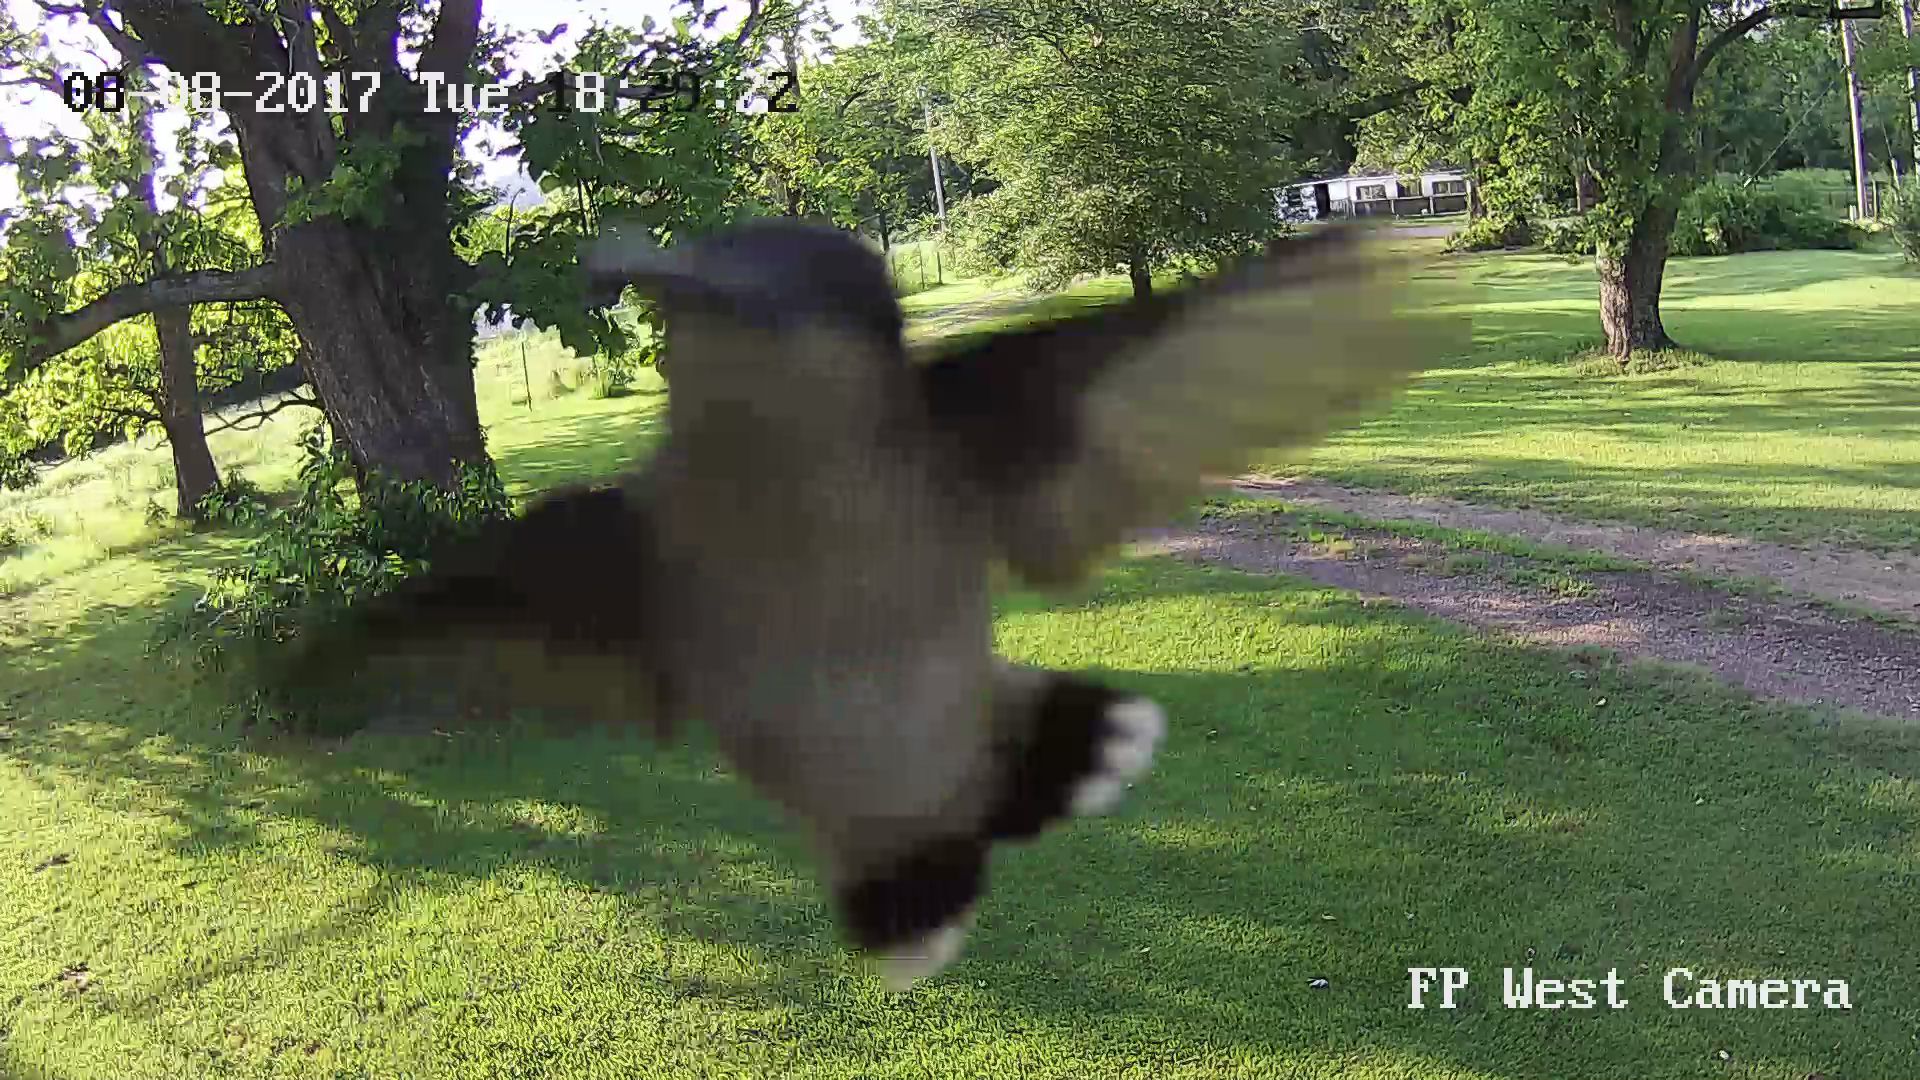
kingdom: Animalia
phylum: Chordata
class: Aves
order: Apodiformes
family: Trochilidae
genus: Archilochus
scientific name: Archilochus colubris
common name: Ruby-throated hummingbird
